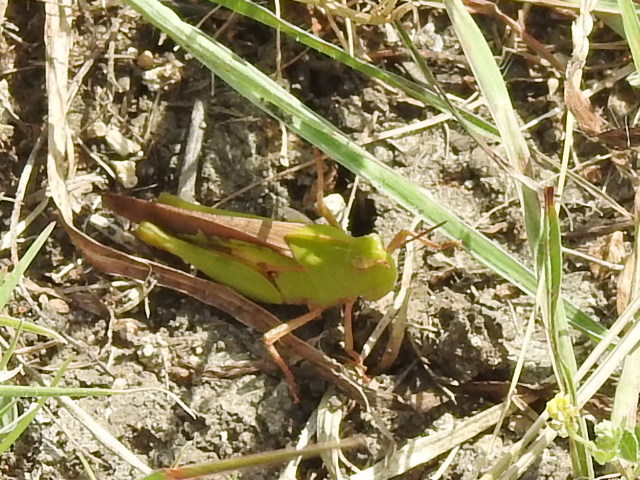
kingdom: Animalia
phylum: Arthropoda
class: Insecta
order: Orthoptera
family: Acrididae
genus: Chortophaga
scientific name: Chortophaga viridifasciata
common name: Green-striped grasshopper
